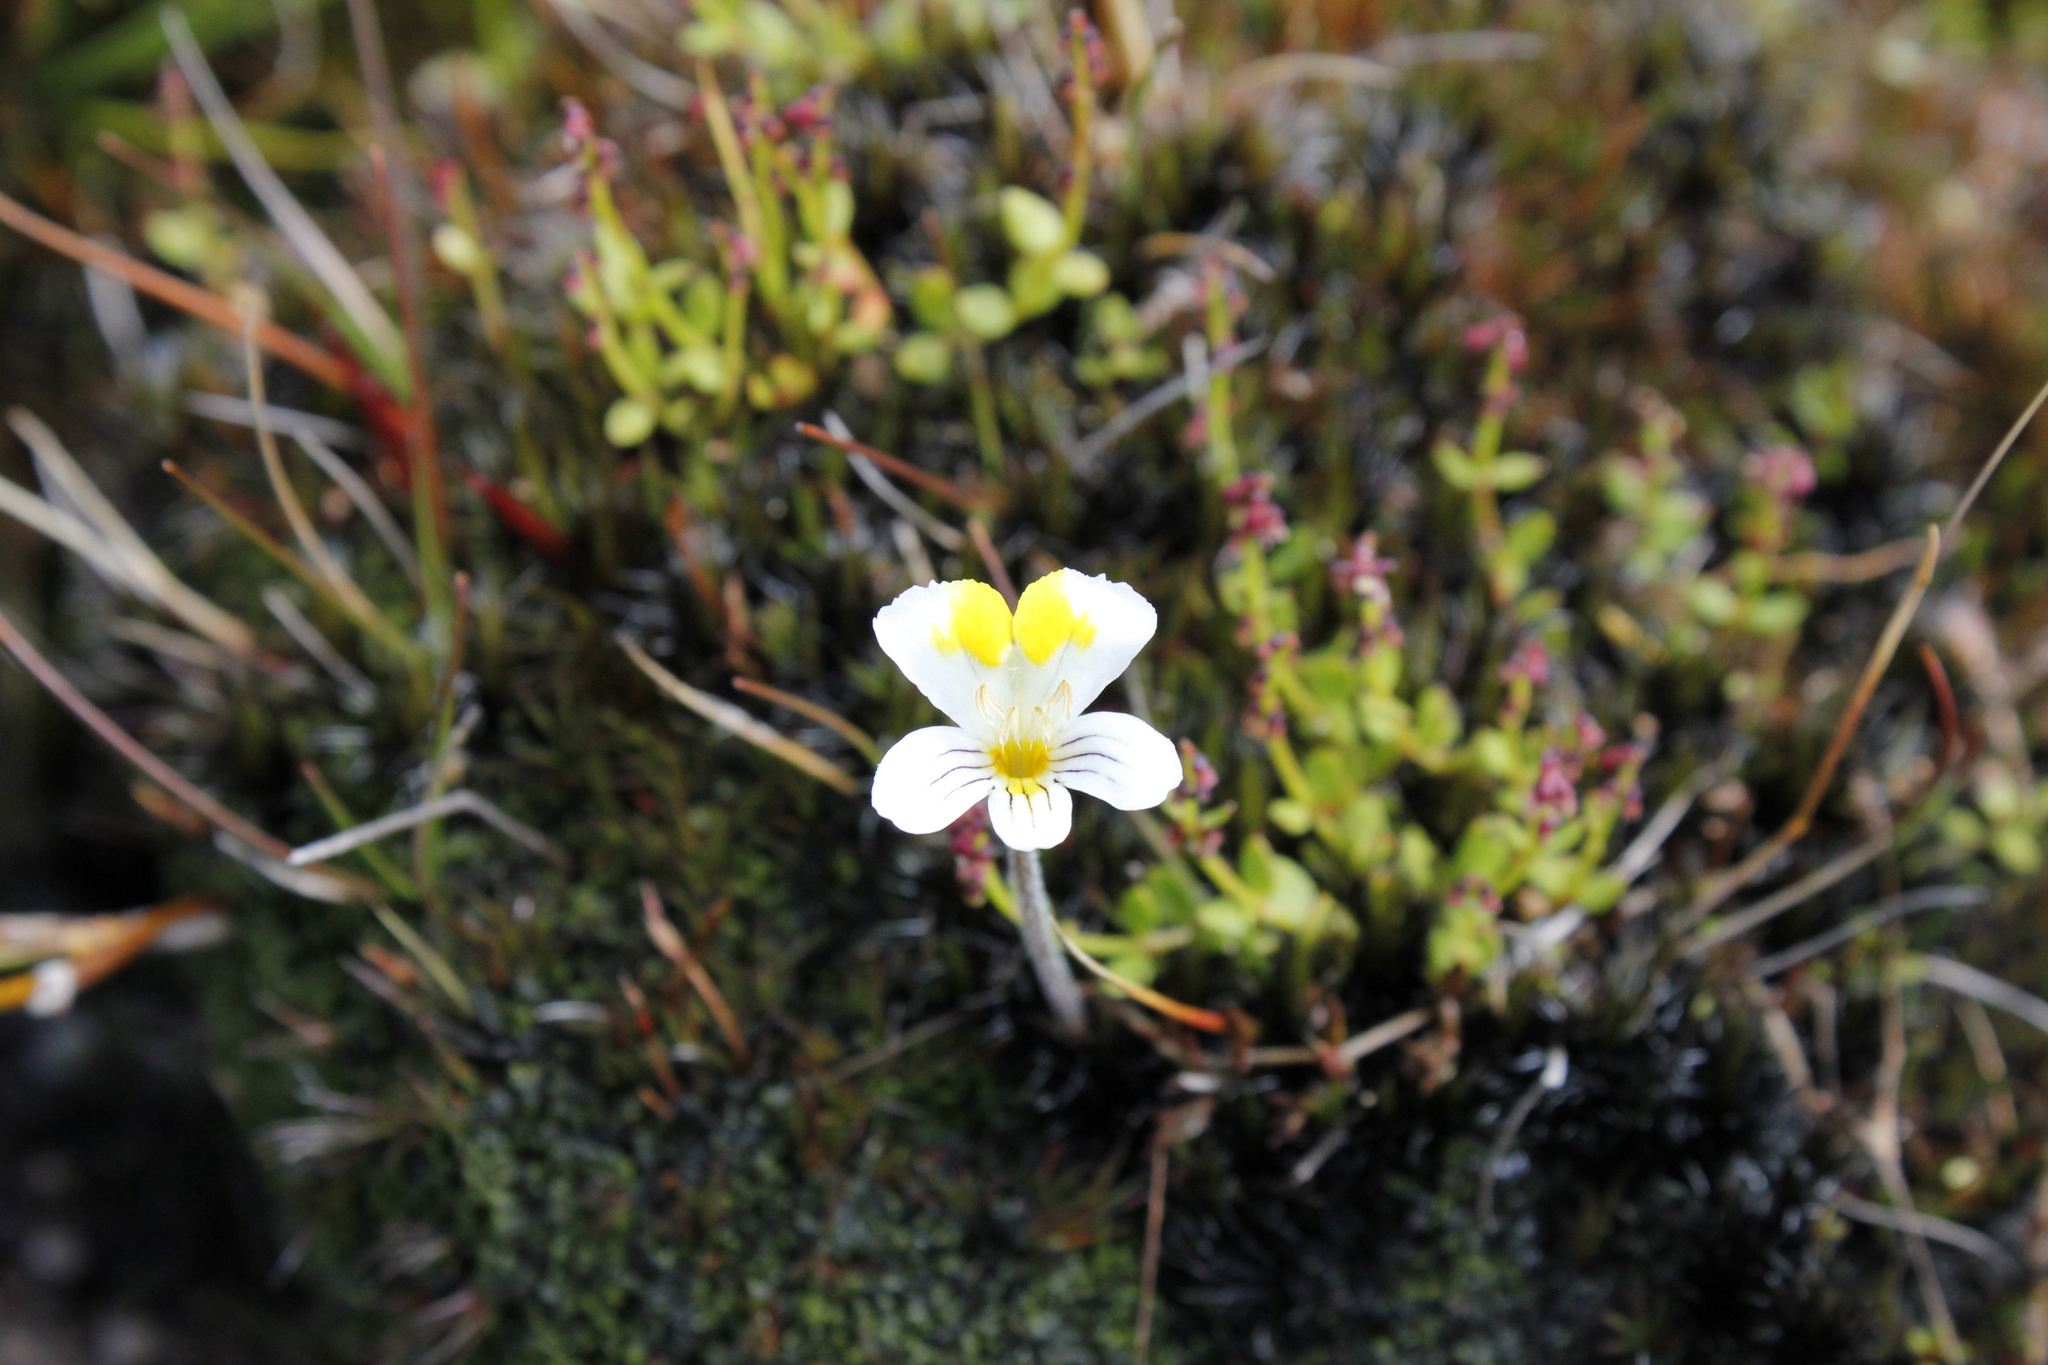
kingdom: Plantae
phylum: Tracheophyta
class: Magnoliopsida
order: Lamiales
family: Orobanchaceae
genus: Euphrasia
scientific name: Euphrasia disperma
